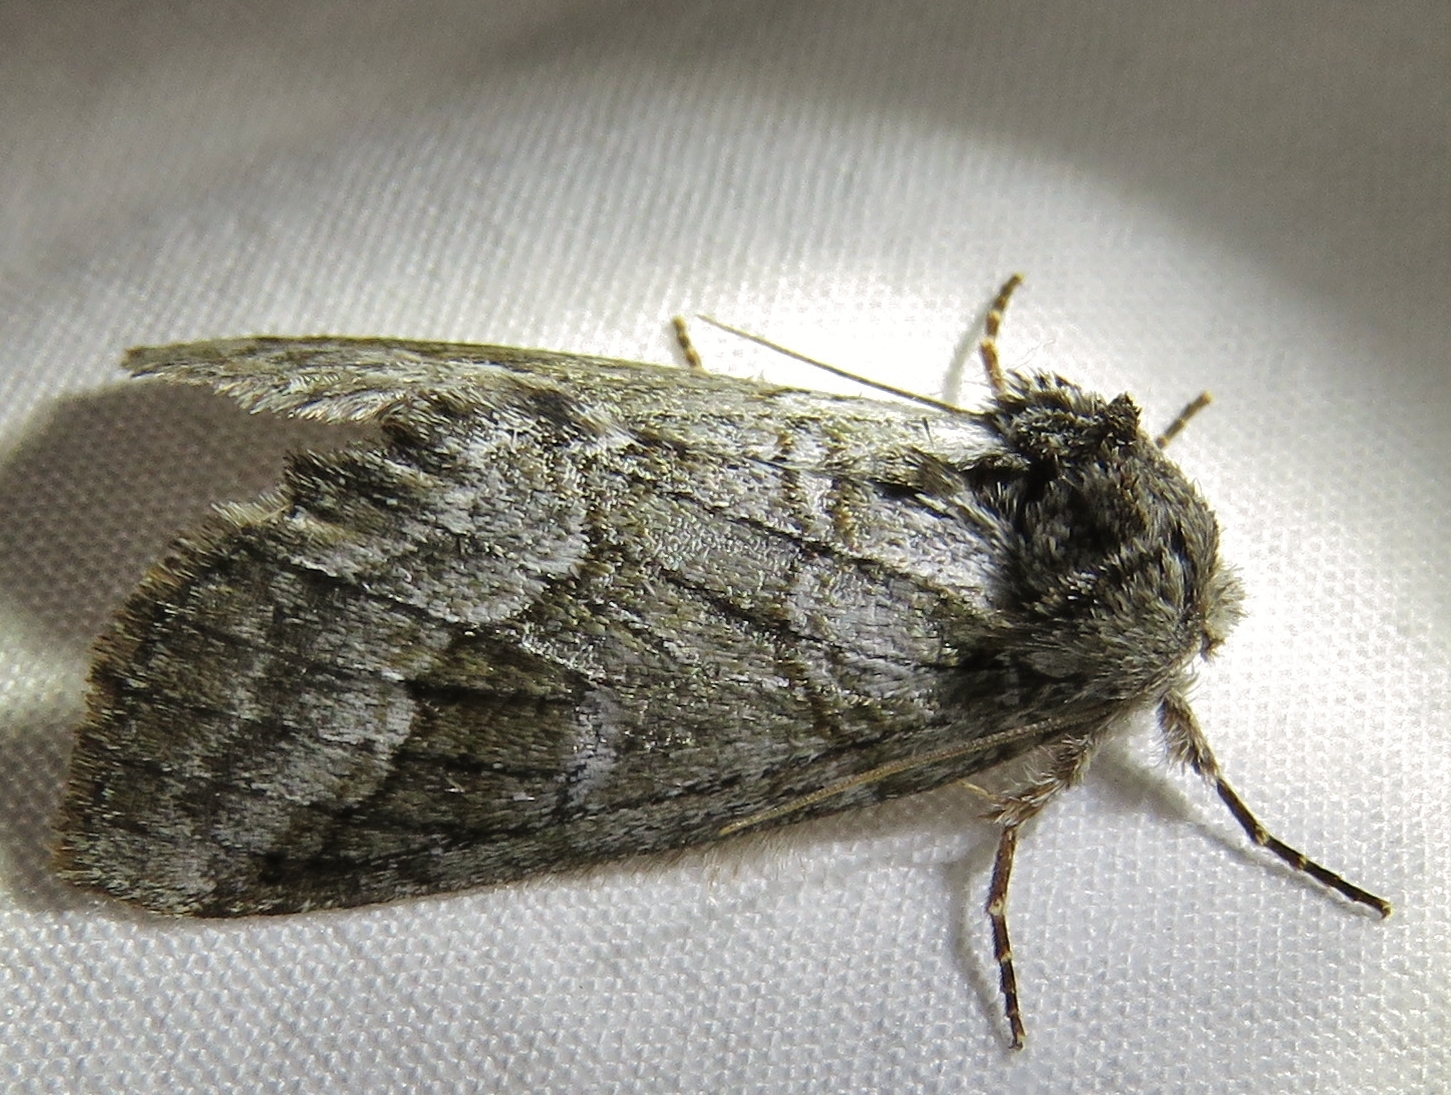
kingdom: Animalia
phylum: Arthropoda
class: Insecta
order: Lepidoptera
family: Notodontidae
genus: Lochmaeus
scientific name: Lochmaeus bilineata
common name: Double-lined prominent
